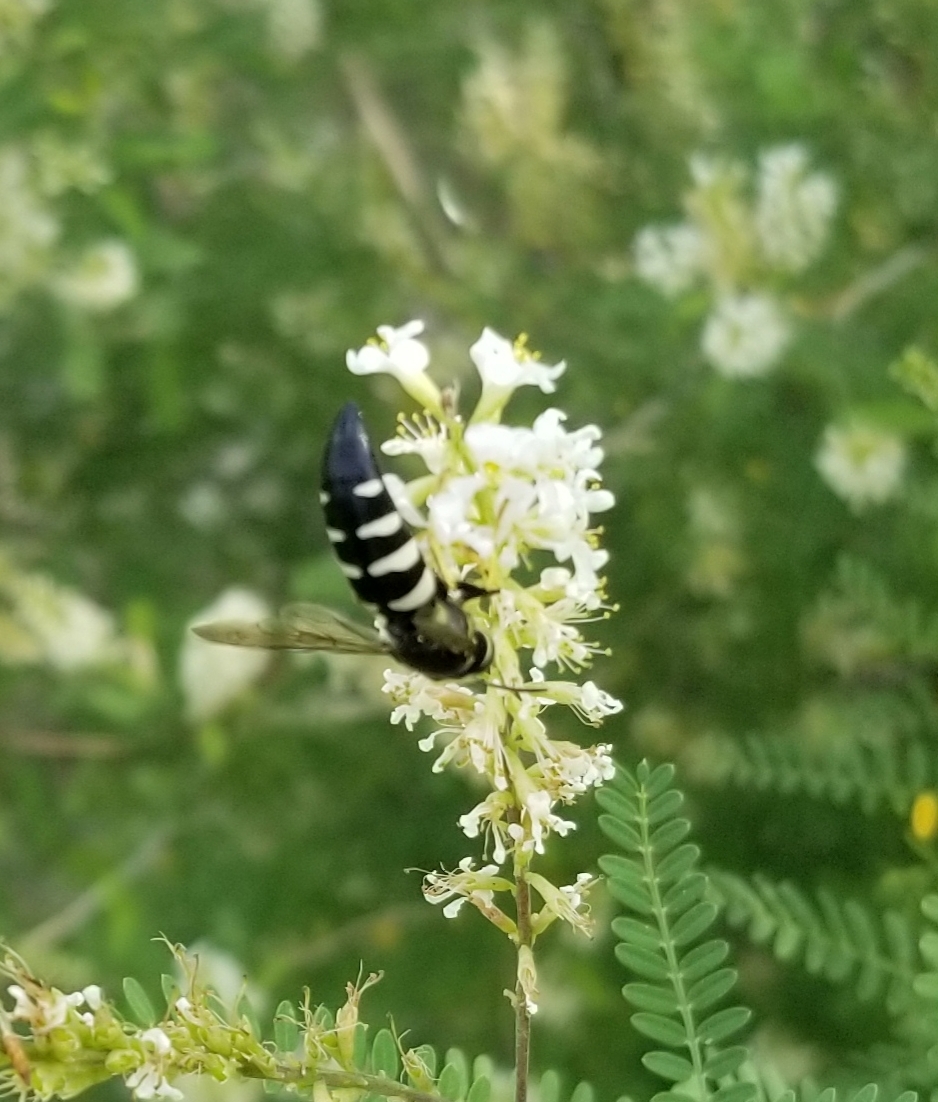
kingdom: Animalia
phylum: Arthropoda
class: Insecta
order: Hymenoptera
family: Crabronidae
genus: Bicyrtes
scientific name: Bicyrtes quadrifasciatus
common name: Four-banded stink bug hunter wasp
